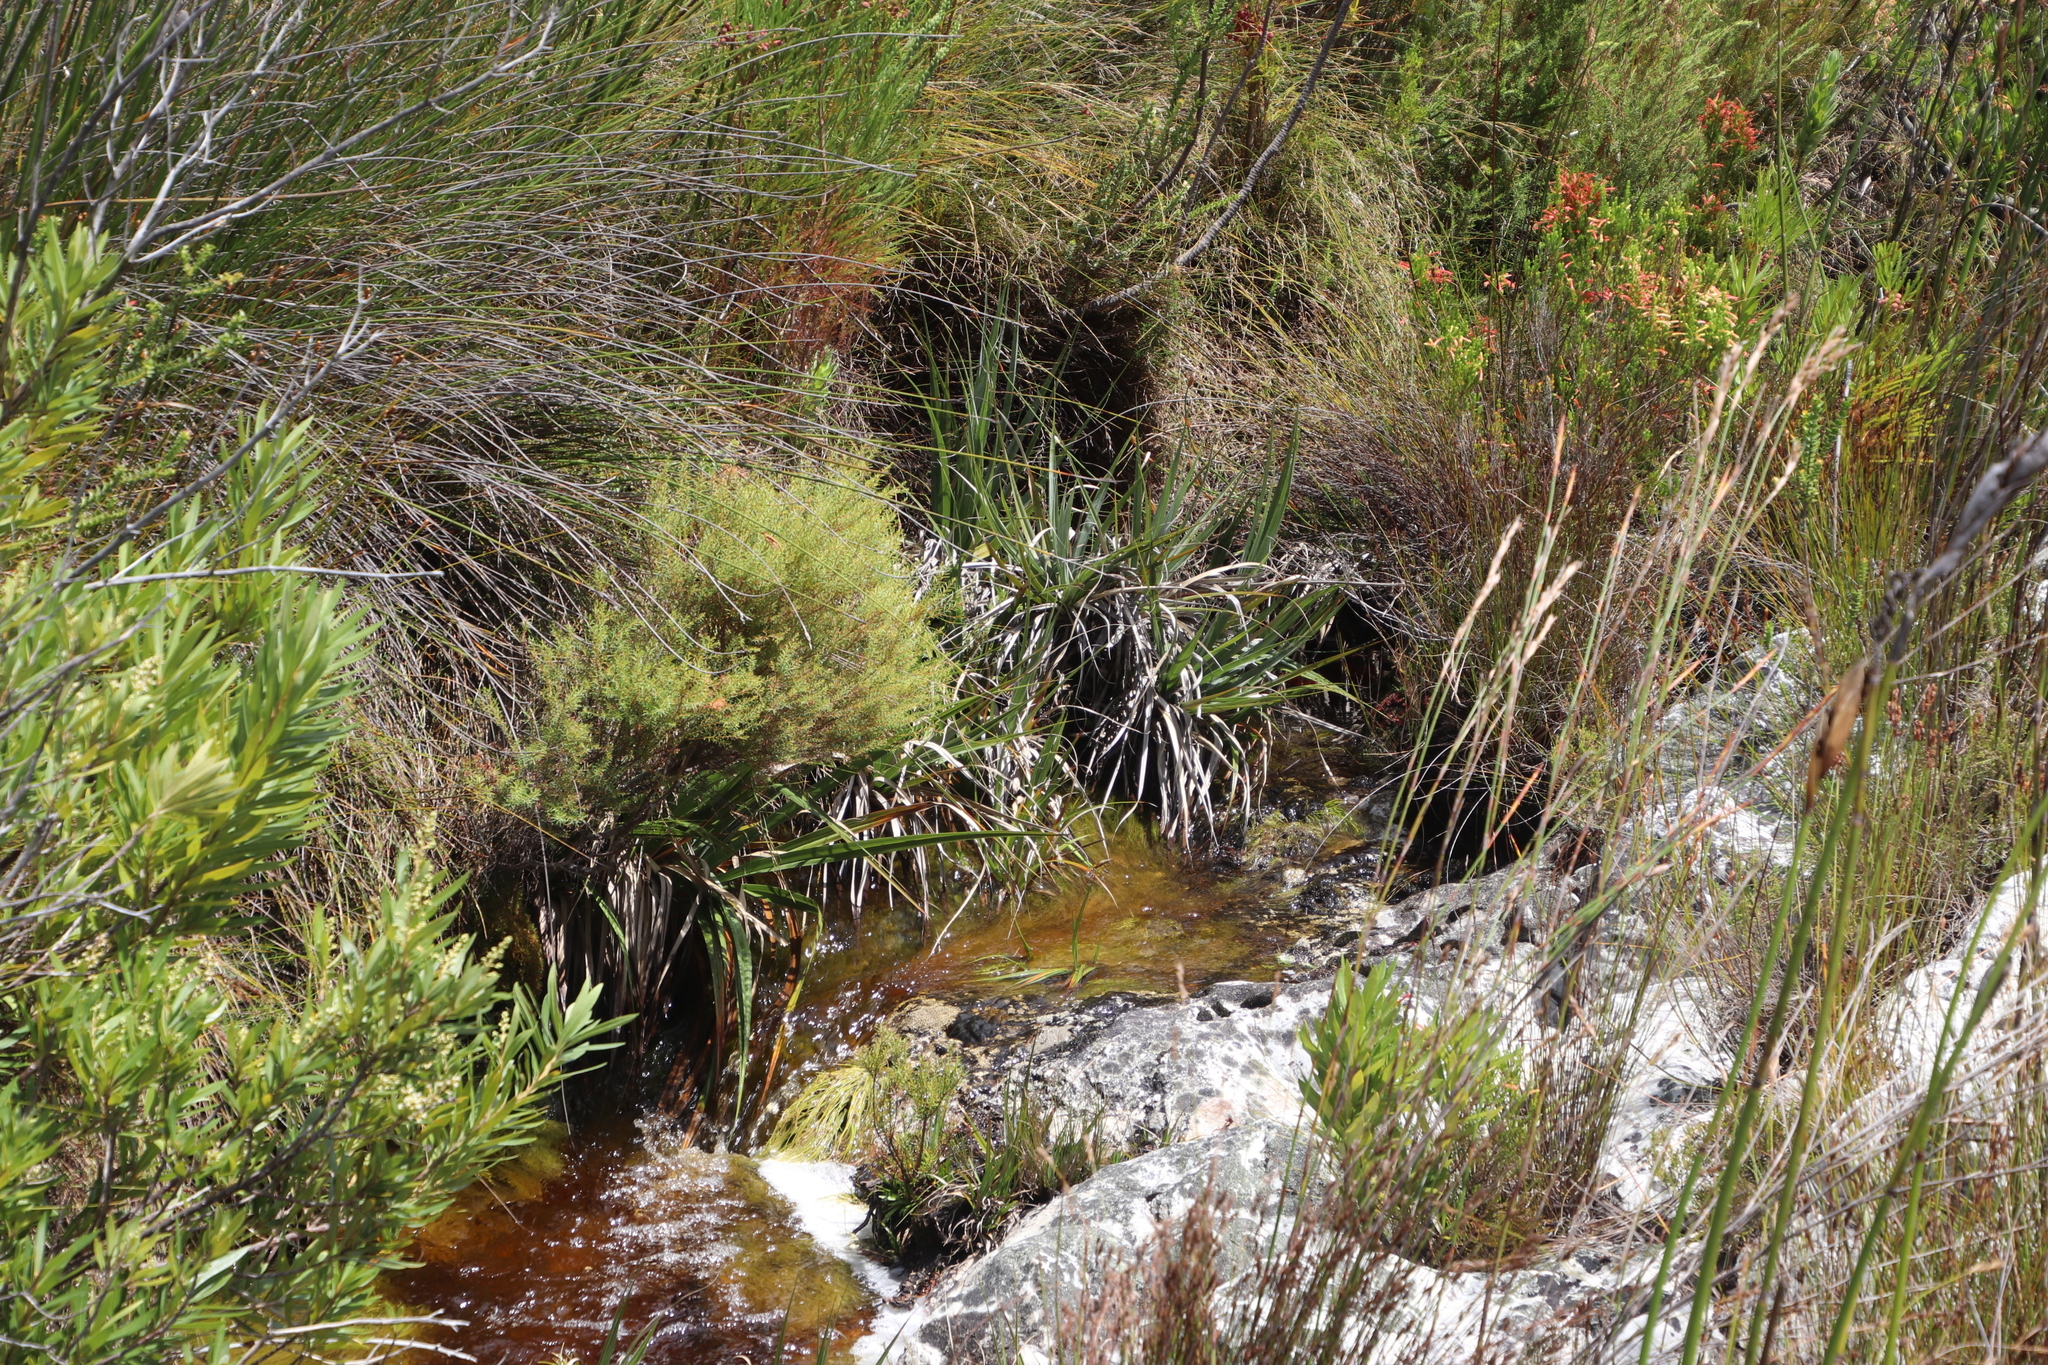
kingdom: Plantae
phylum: Tracheophyta
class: Magnoliopsida
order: Bruniales
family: Bruniaceae
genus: Brunia
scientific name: Brunia africana
